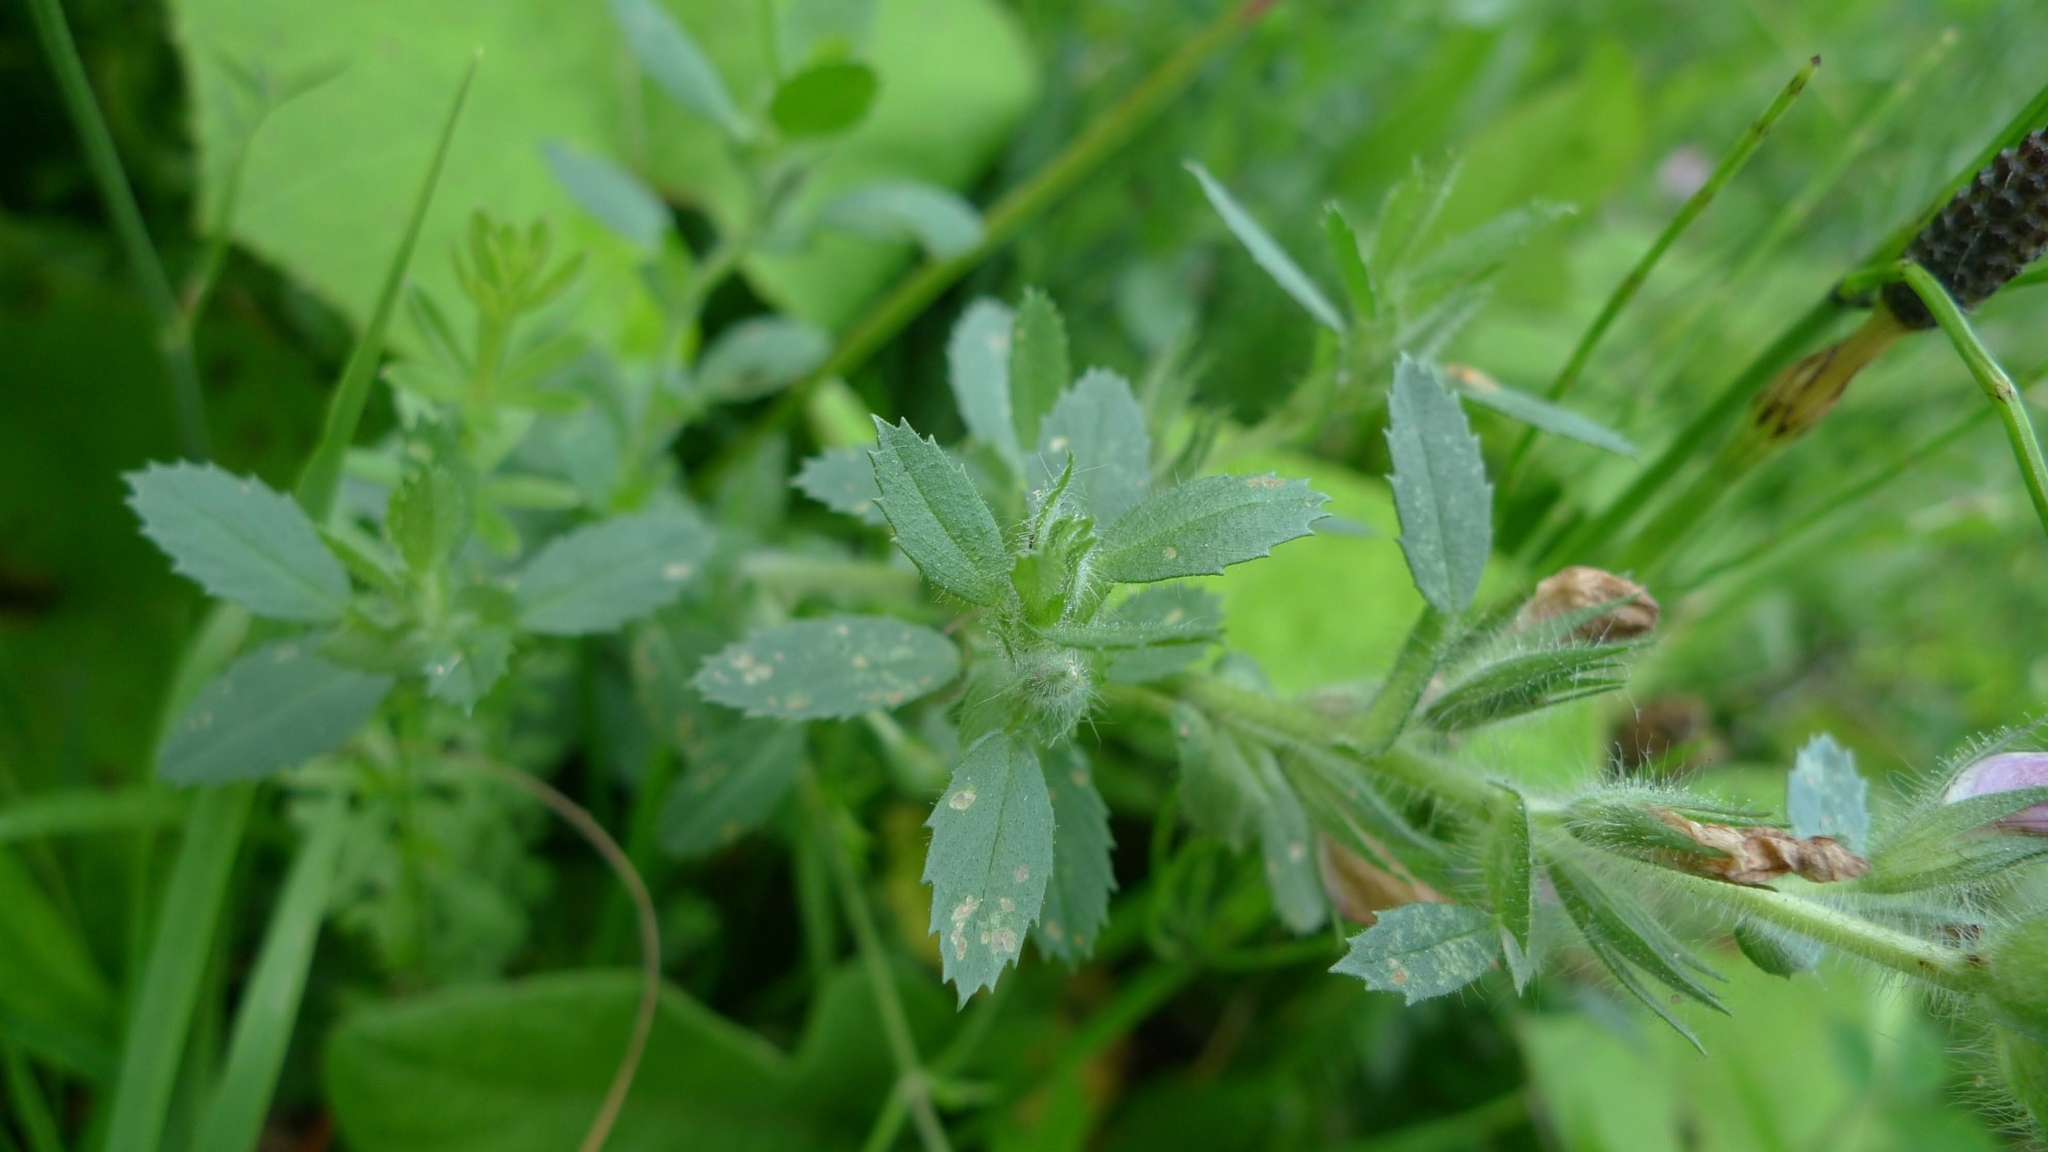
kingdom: Plantae
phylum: Tracheophyta
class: Magnoliopsida
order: Fabales
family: Fabaceae
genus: Ononis
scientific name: Ononis arvensis
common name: Field restharrow
